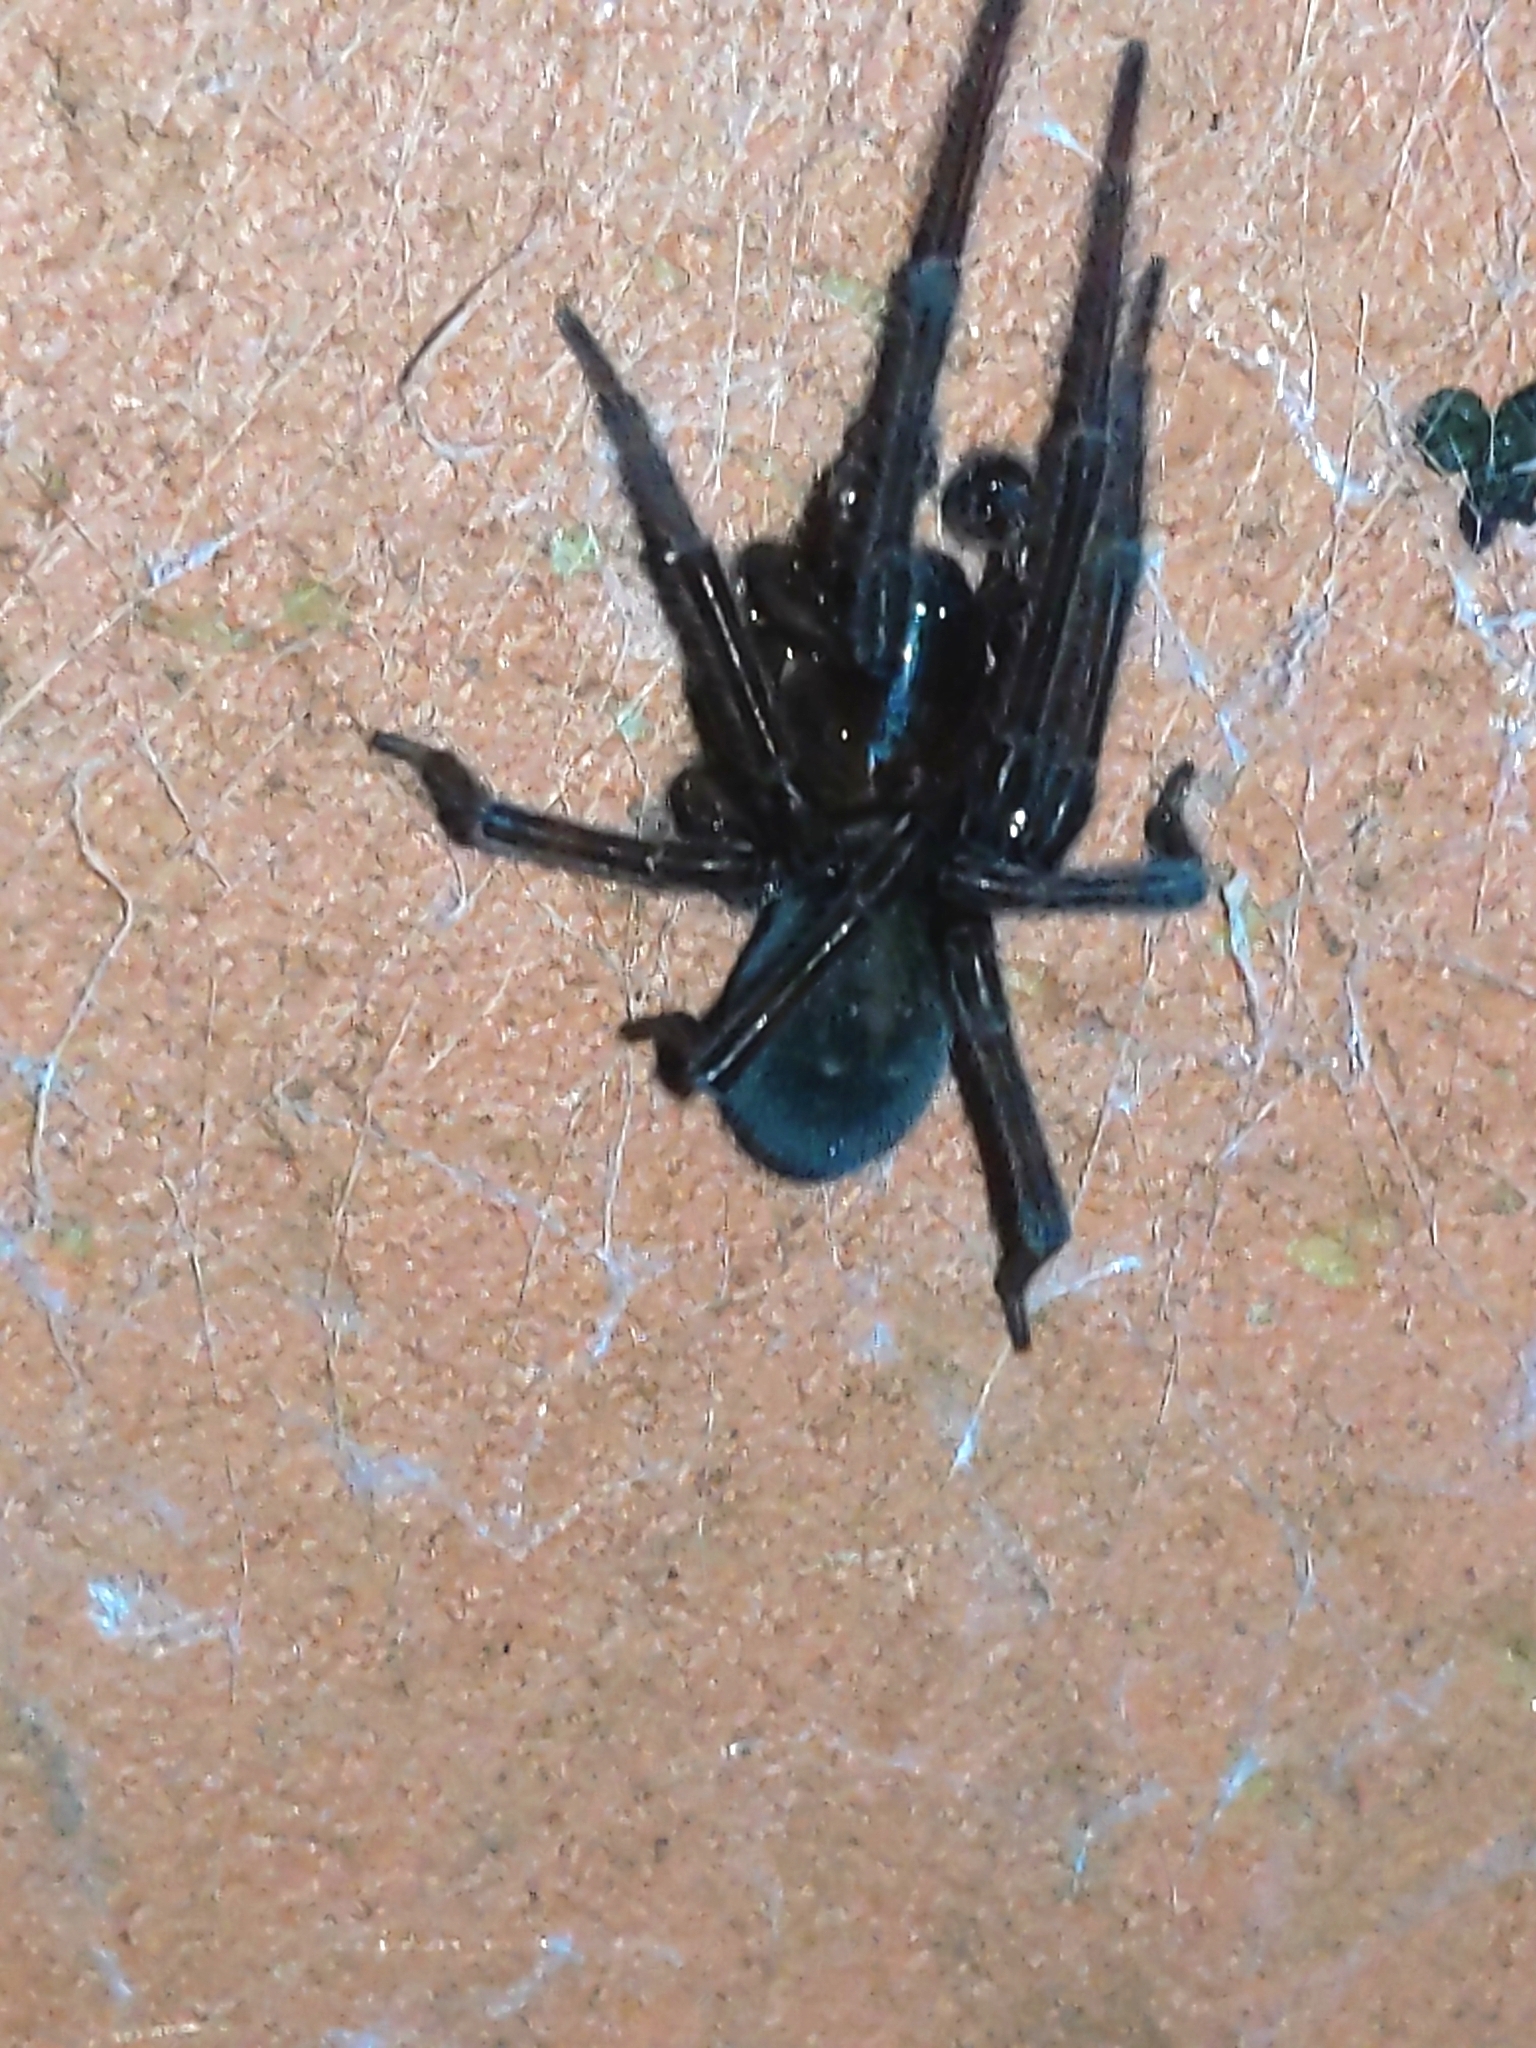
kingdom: Animalia
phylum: Arthropoda
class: Arachnida
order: Araneae
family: Amaurobiidae
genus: Amaurobius
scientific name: Amaurobius ferox
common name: Black laceweaver
